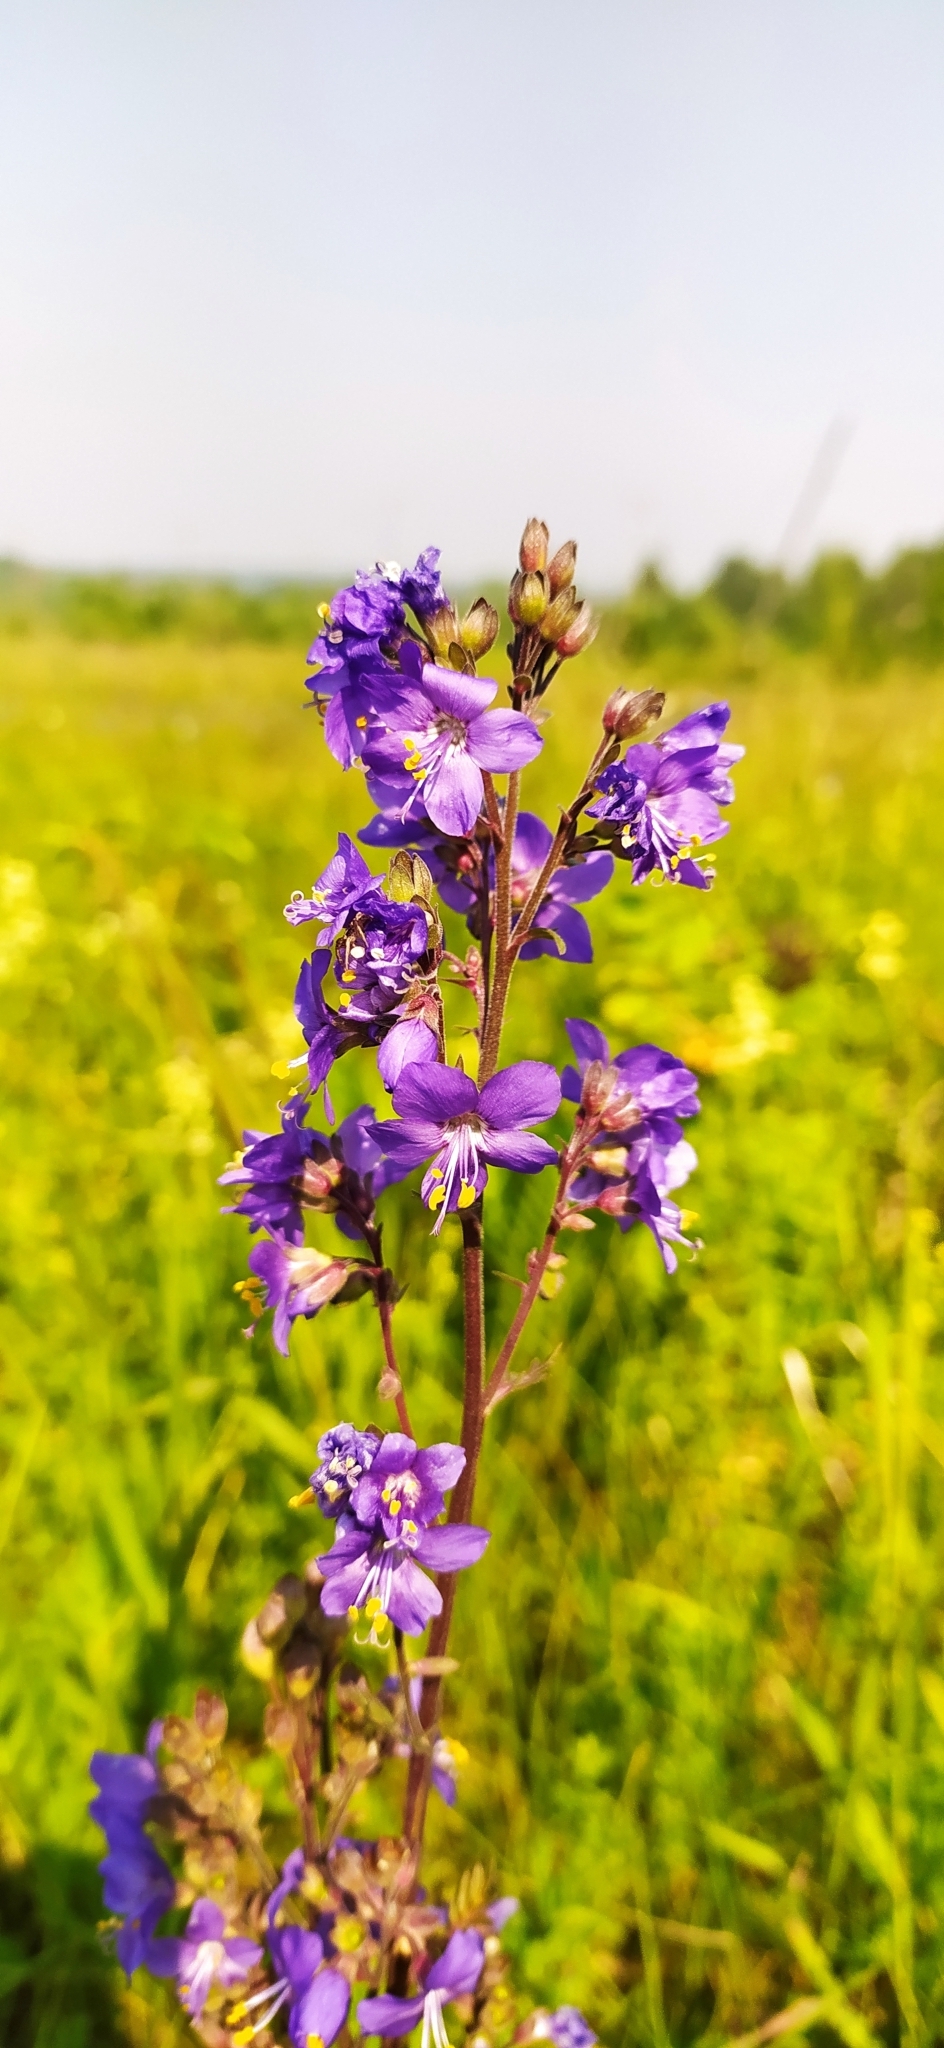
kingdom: Plantae
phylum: Tracheophyta
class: Magnoliopsida
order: Ericales
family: Polemoniaceae
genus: Polemonium
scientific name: Polemonium caeruleum
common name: Jacob's-ladder
